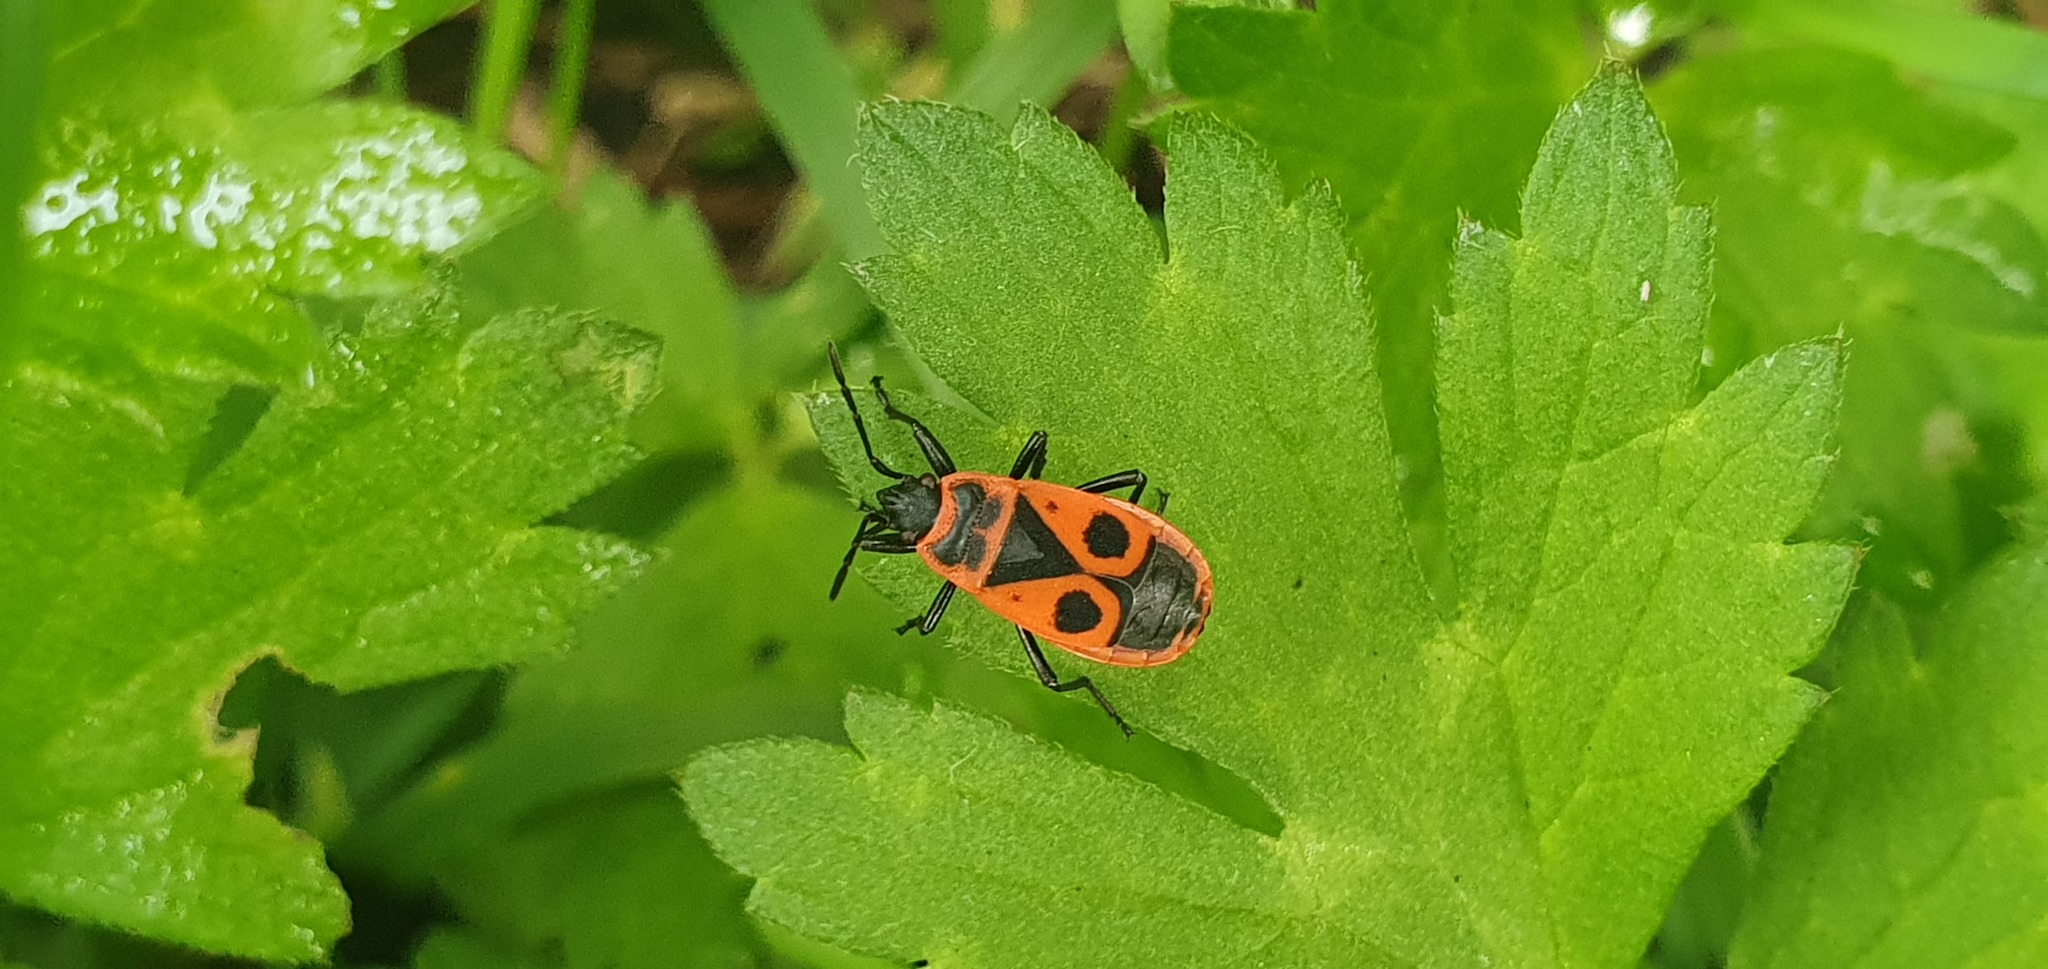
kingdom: Animalia
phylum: Arthropoda
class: Insecta
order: Hemiptera
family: Pyrrhocoridae
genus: Pyrrhocoris
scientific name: Pyrrhocoris apterus
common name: Firebug
